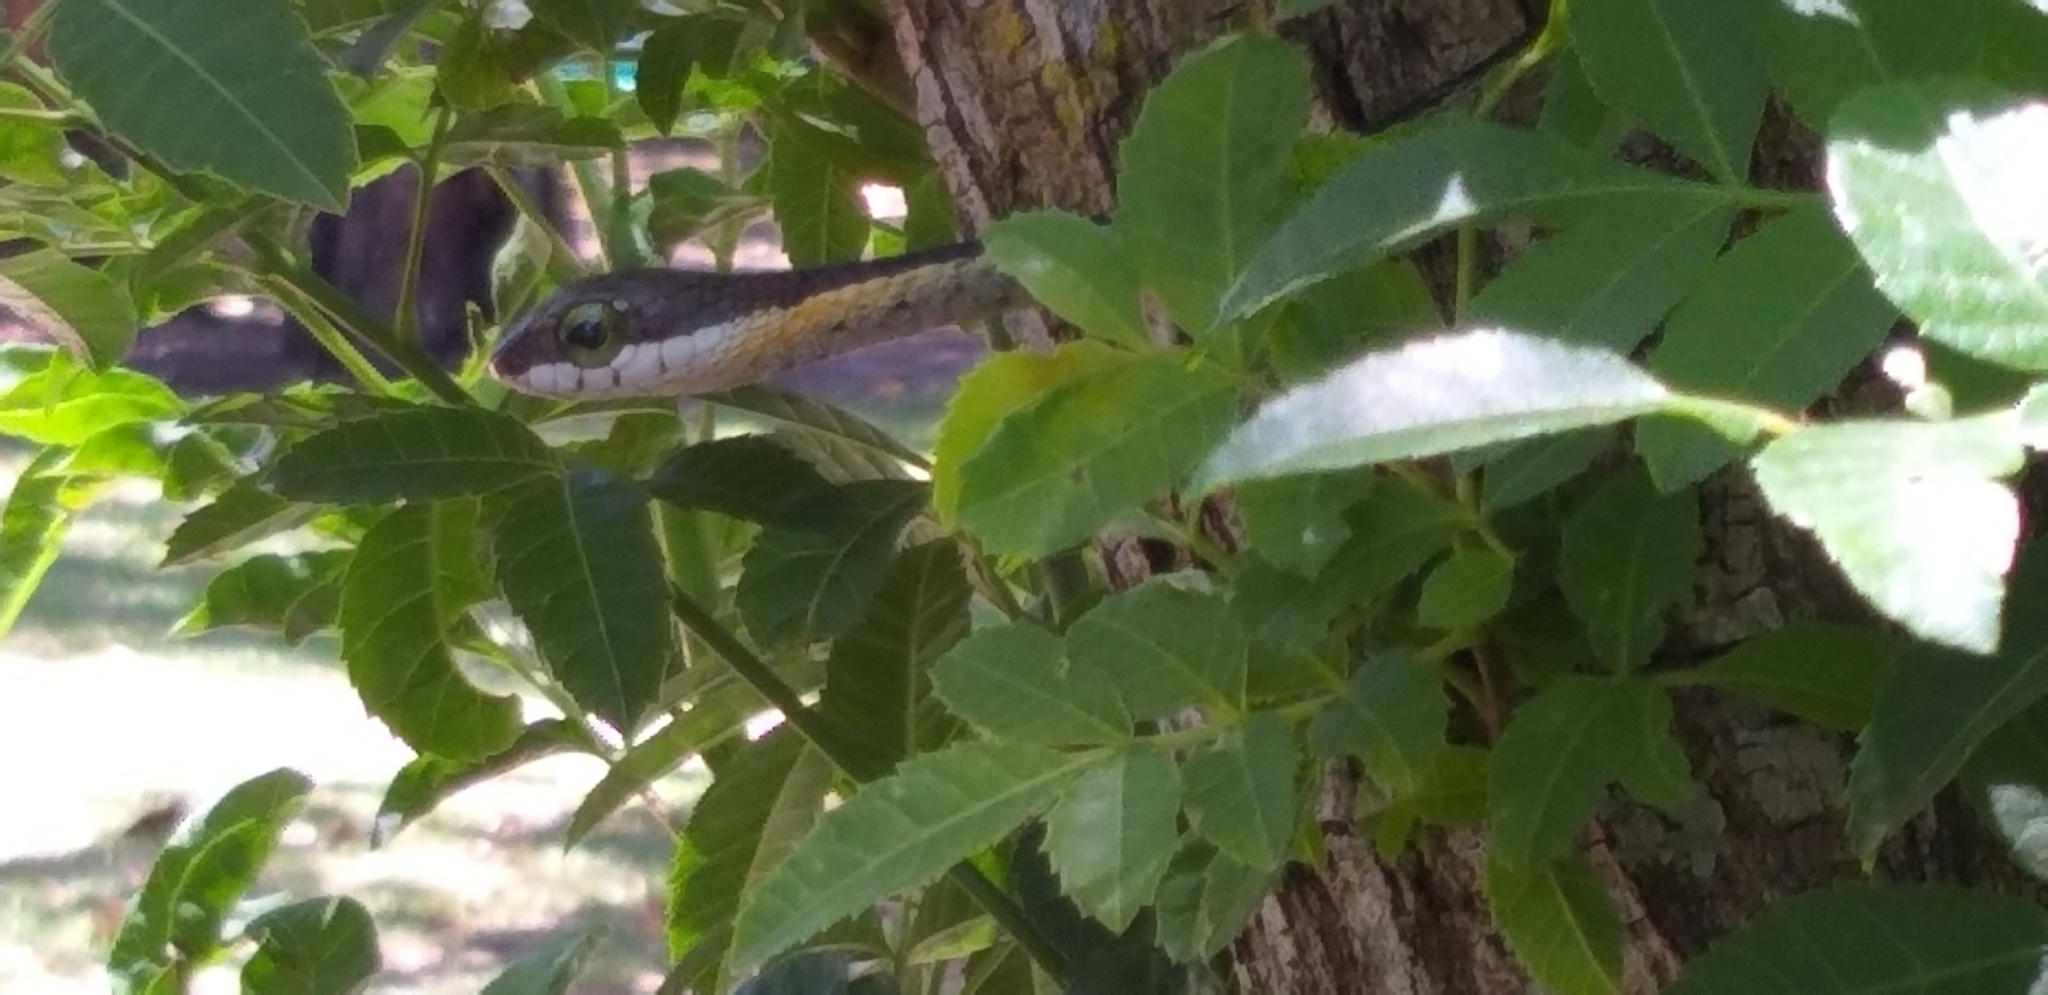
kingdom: Animalia
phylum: Chordata
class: Squamata
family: Colubridae
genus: Dispholidus
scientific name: Dispholidus typus
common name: Boomslang
